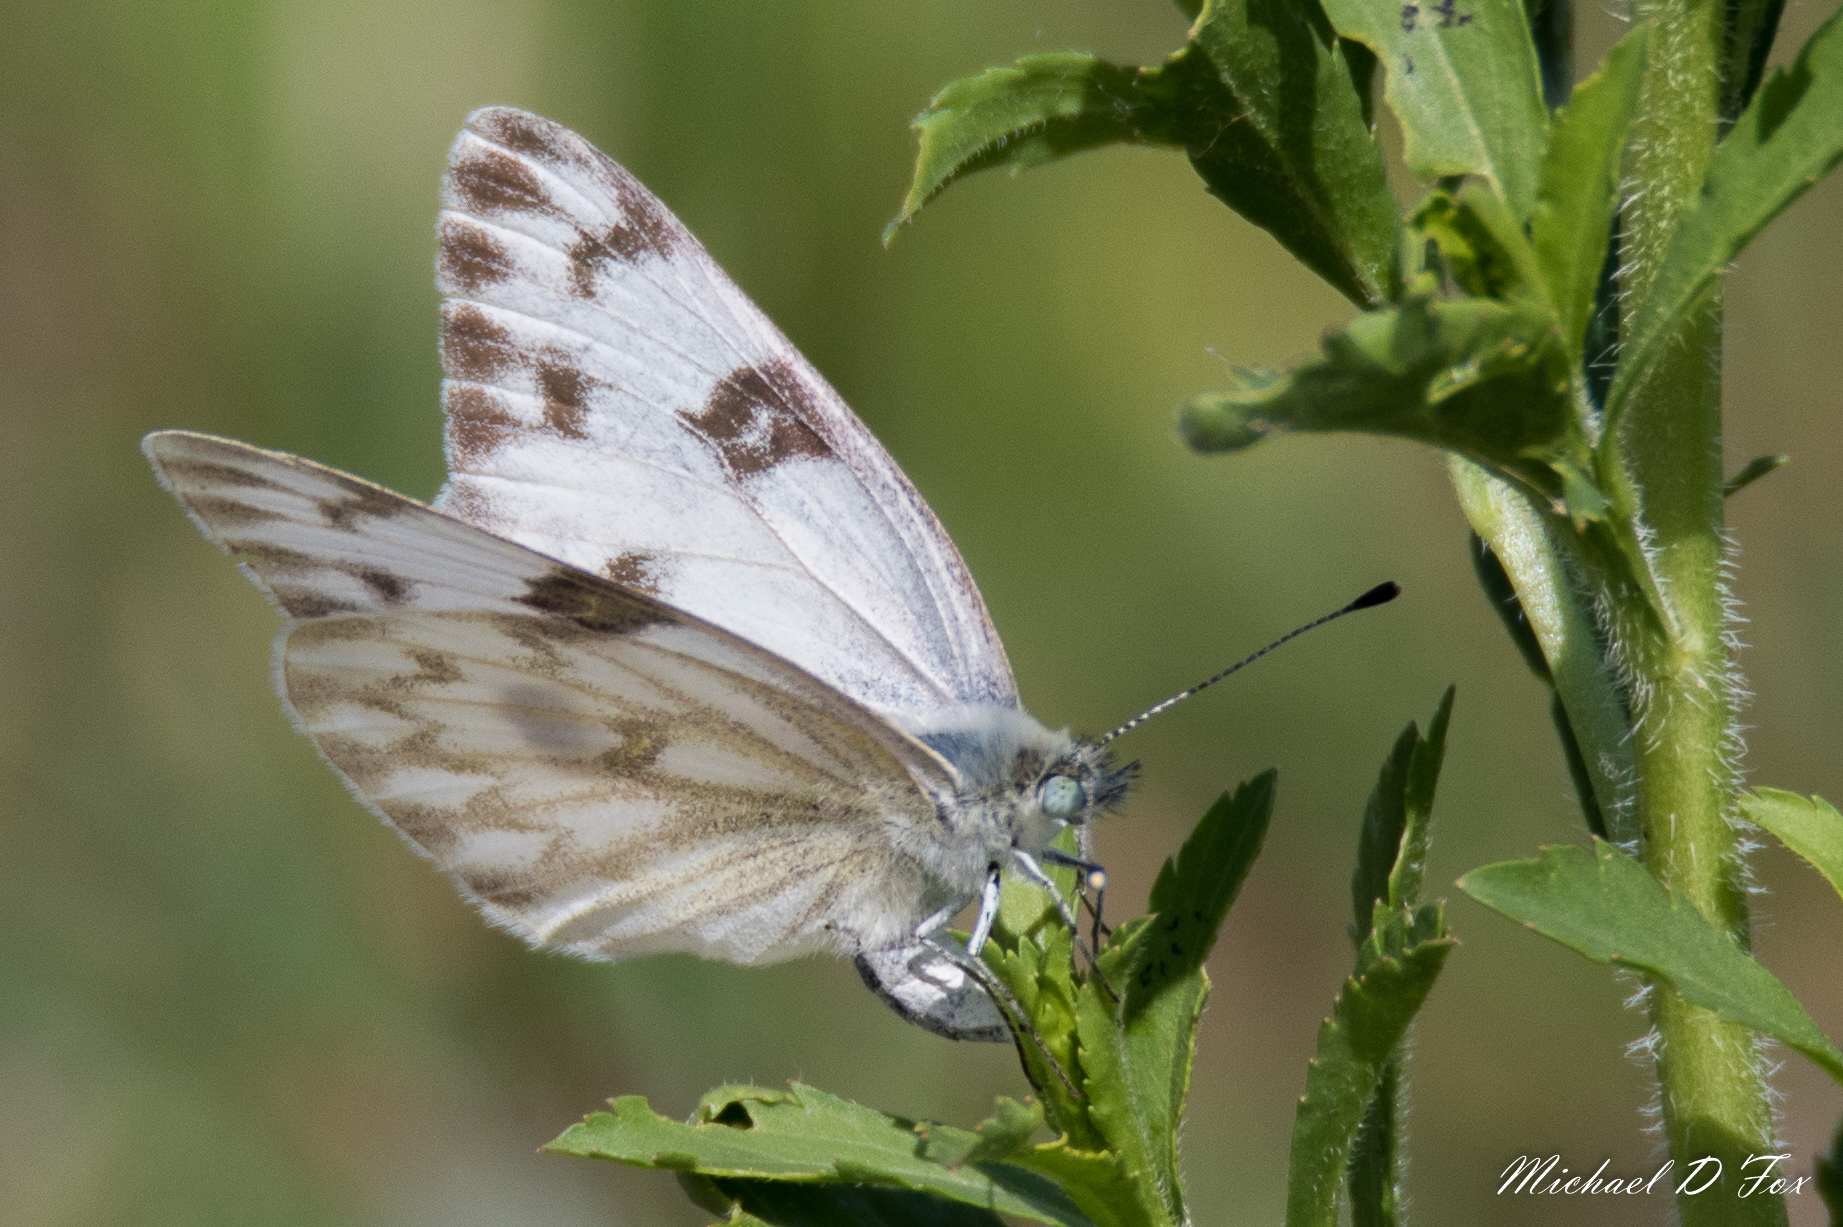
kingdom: Animalia
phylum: Arthropoda
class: Insecta
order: Lepidoptera
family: Pieridae
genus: Pontia
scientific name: Pontia protodice
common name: Checkered white
